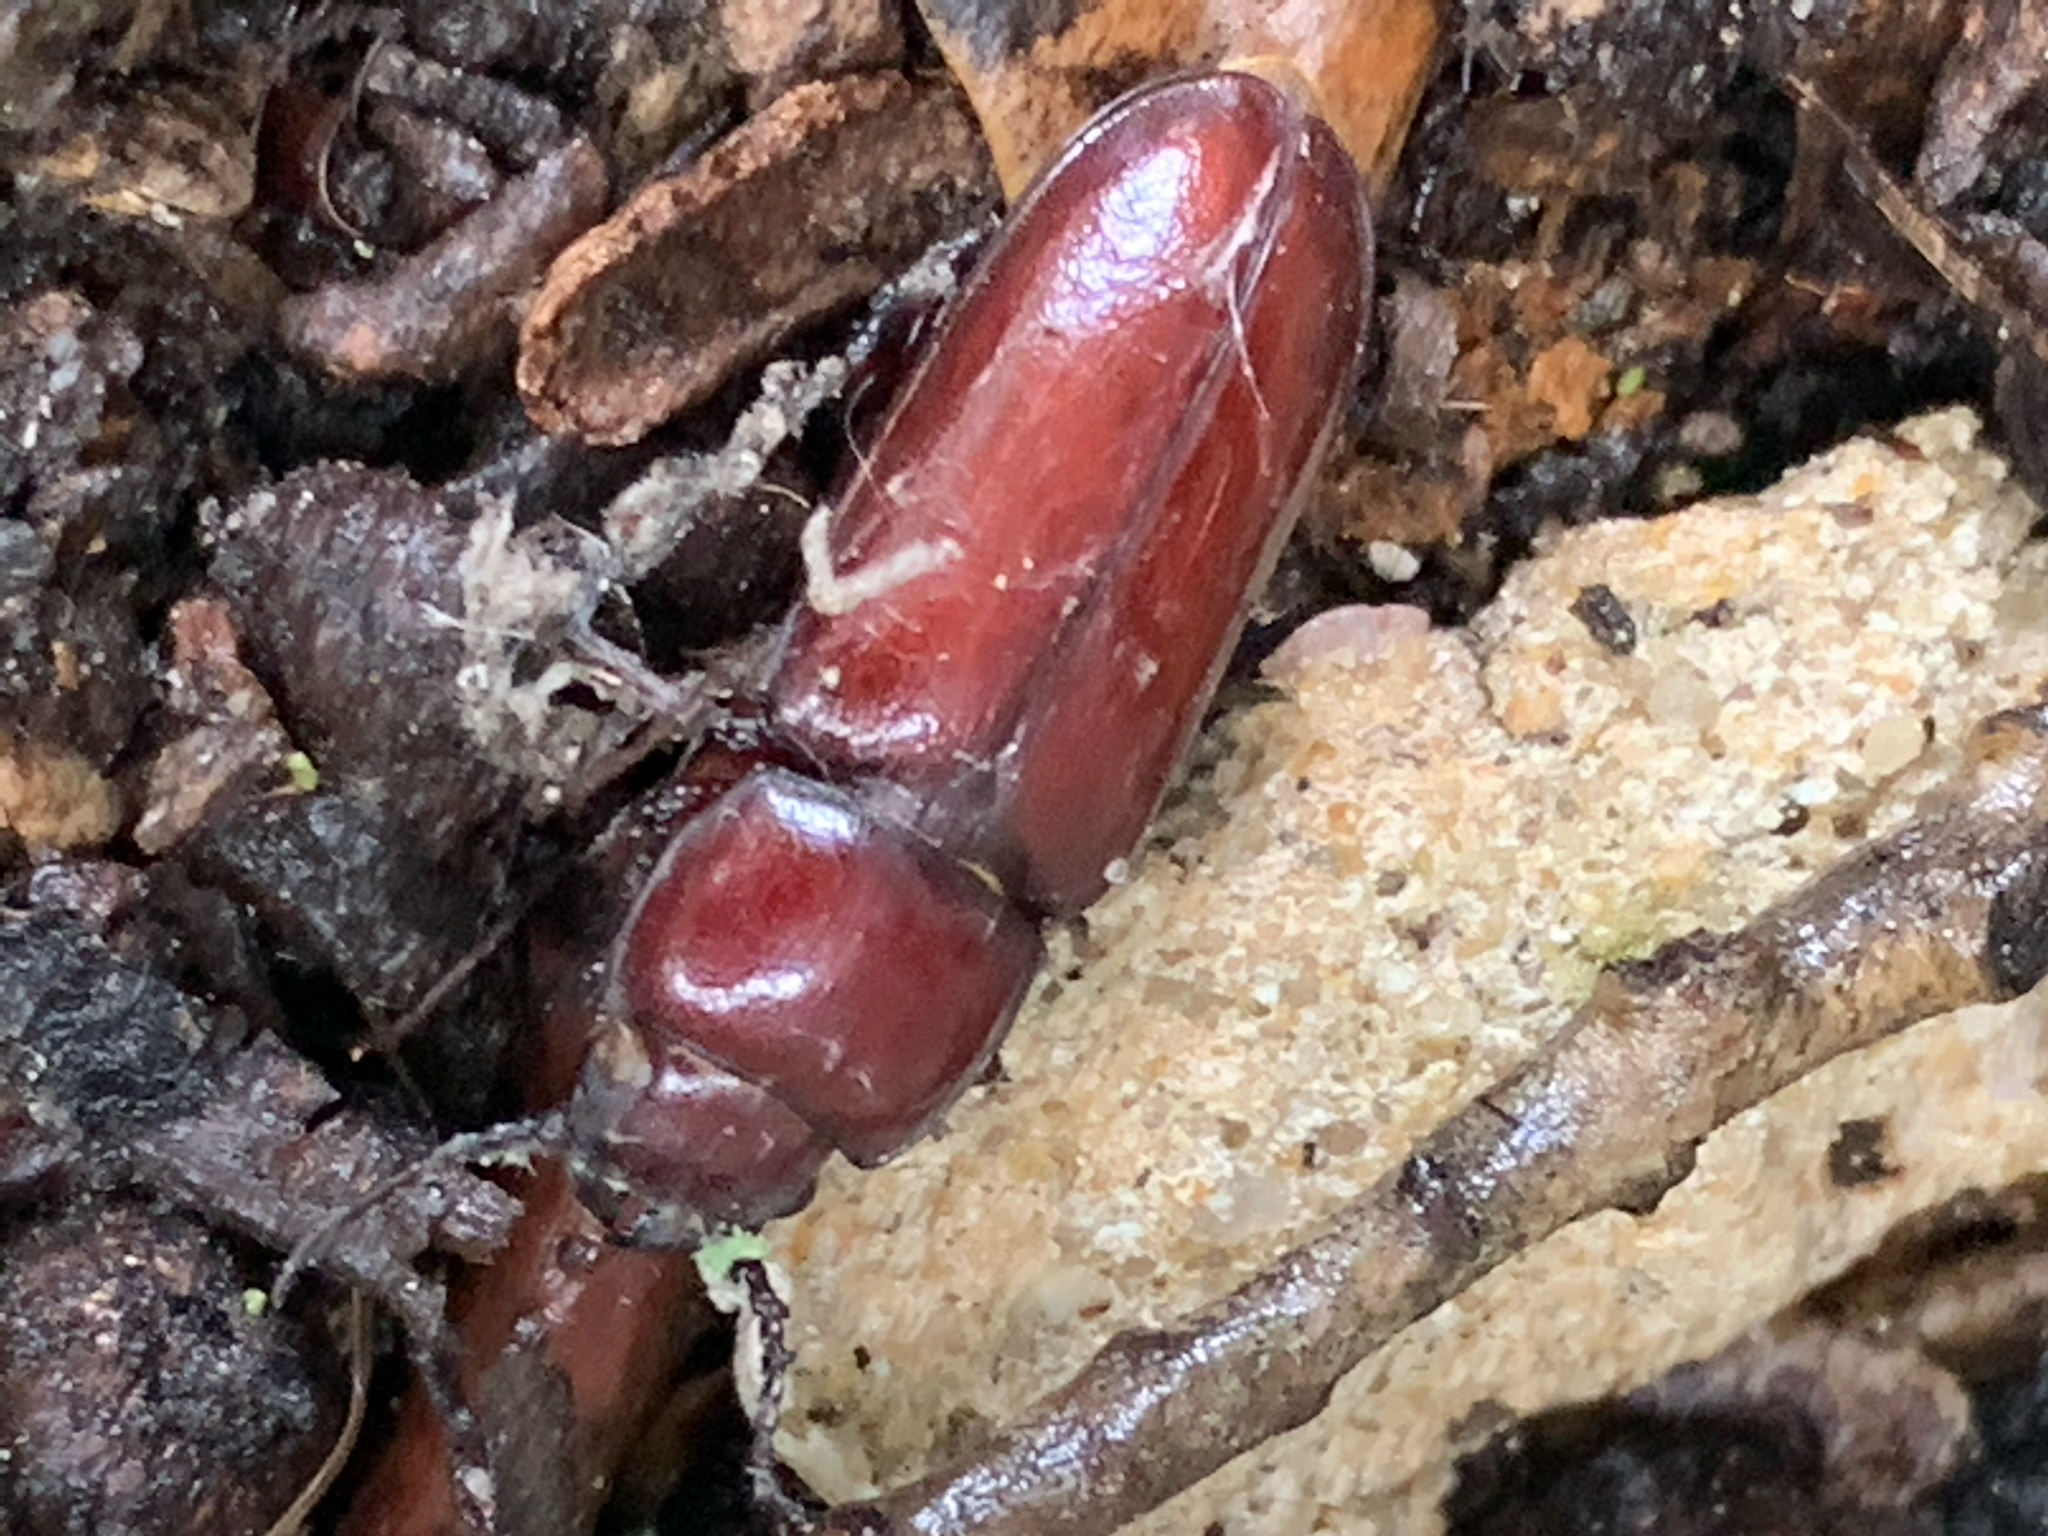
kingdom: Animalia
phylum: Arthropoda
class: Insecta
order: Coleoptera
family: Cerambycidae
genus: Neandra
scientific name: Neandra brunnea
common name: Pole borer
